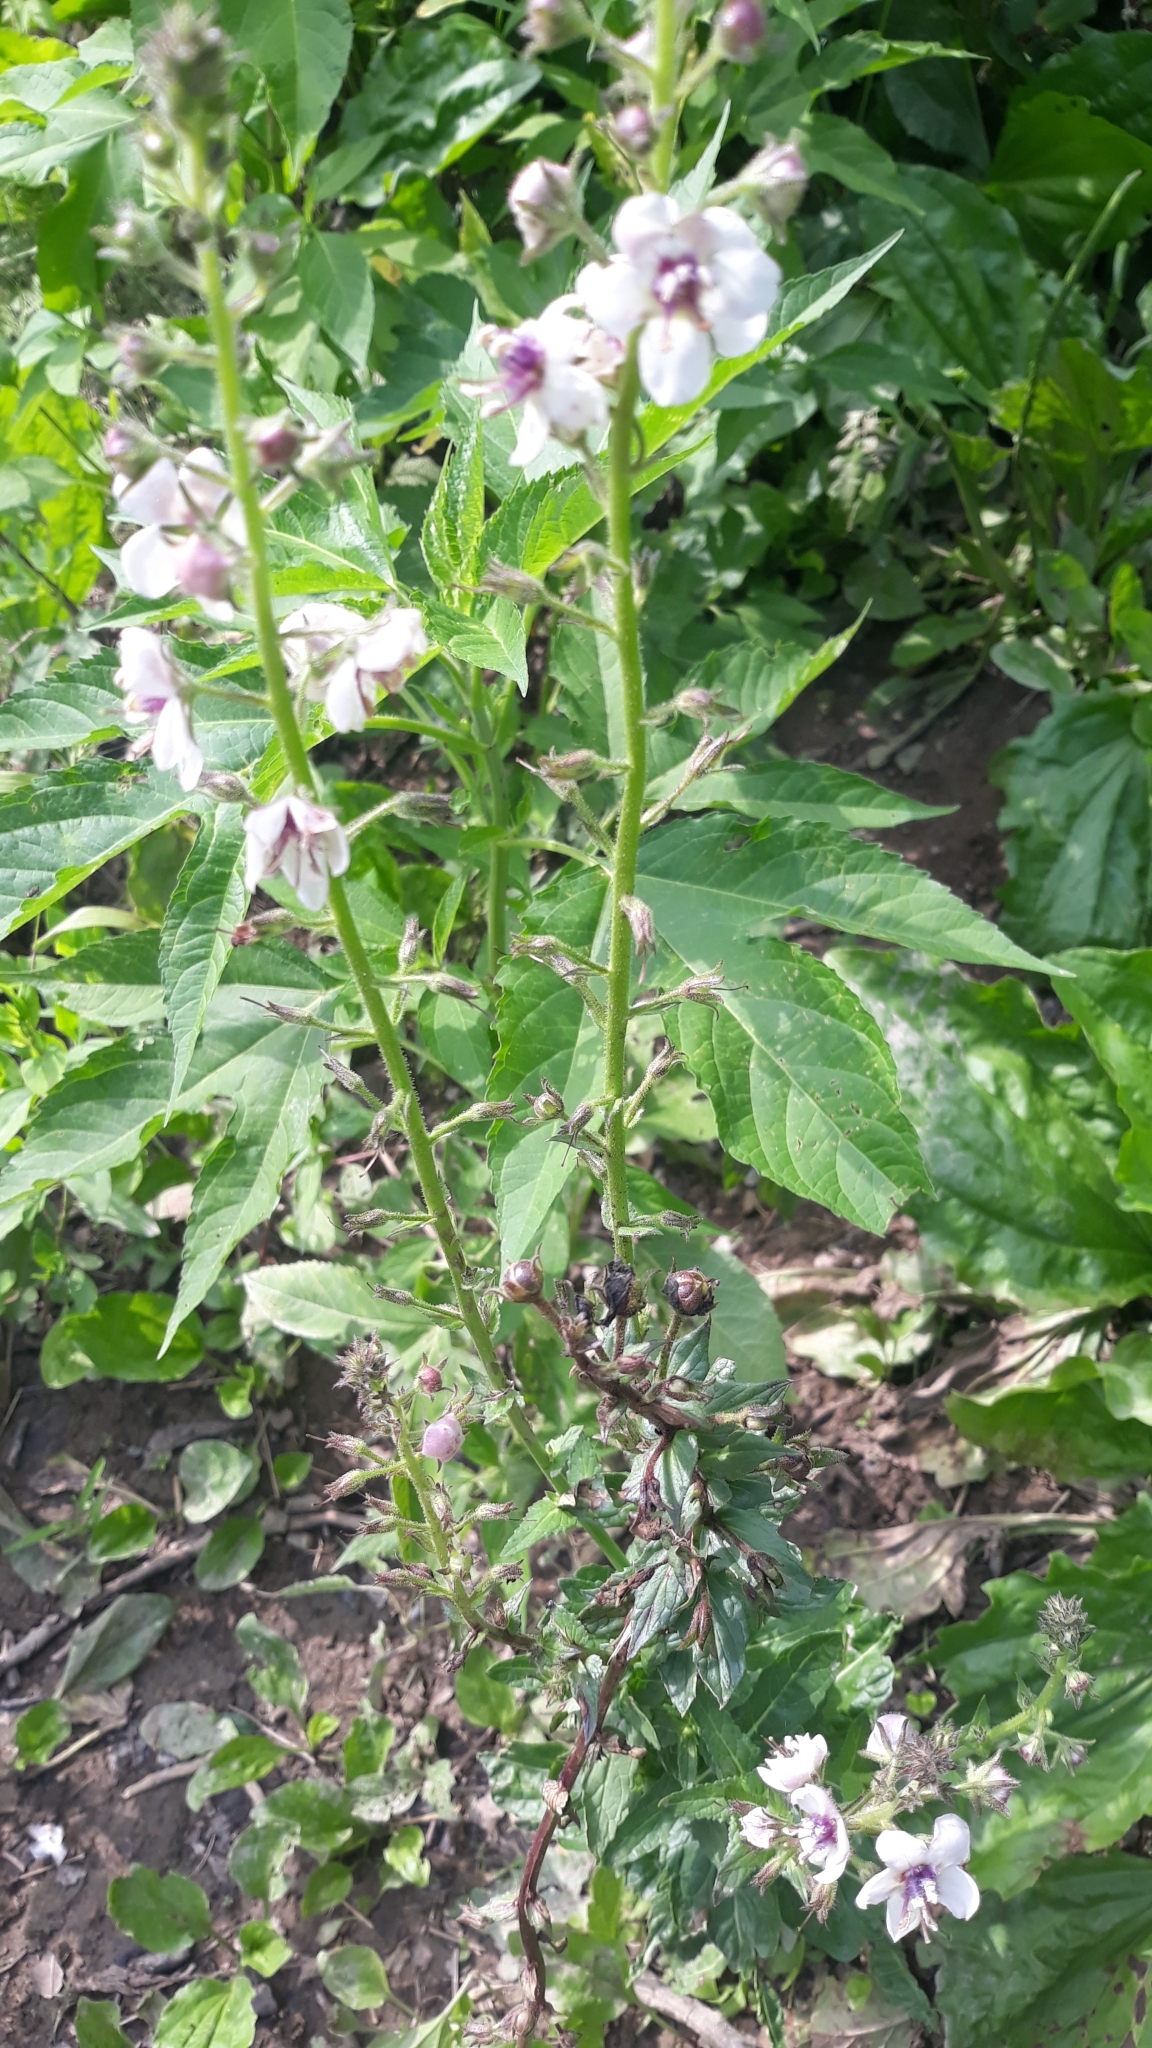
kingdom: Plantae
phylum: Tracheophyta
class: Magnoliopsida
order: Lamiales
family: Scrophulariaceae
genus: Verbascum
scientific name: Verbascum blattaria
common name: Moth mullein
